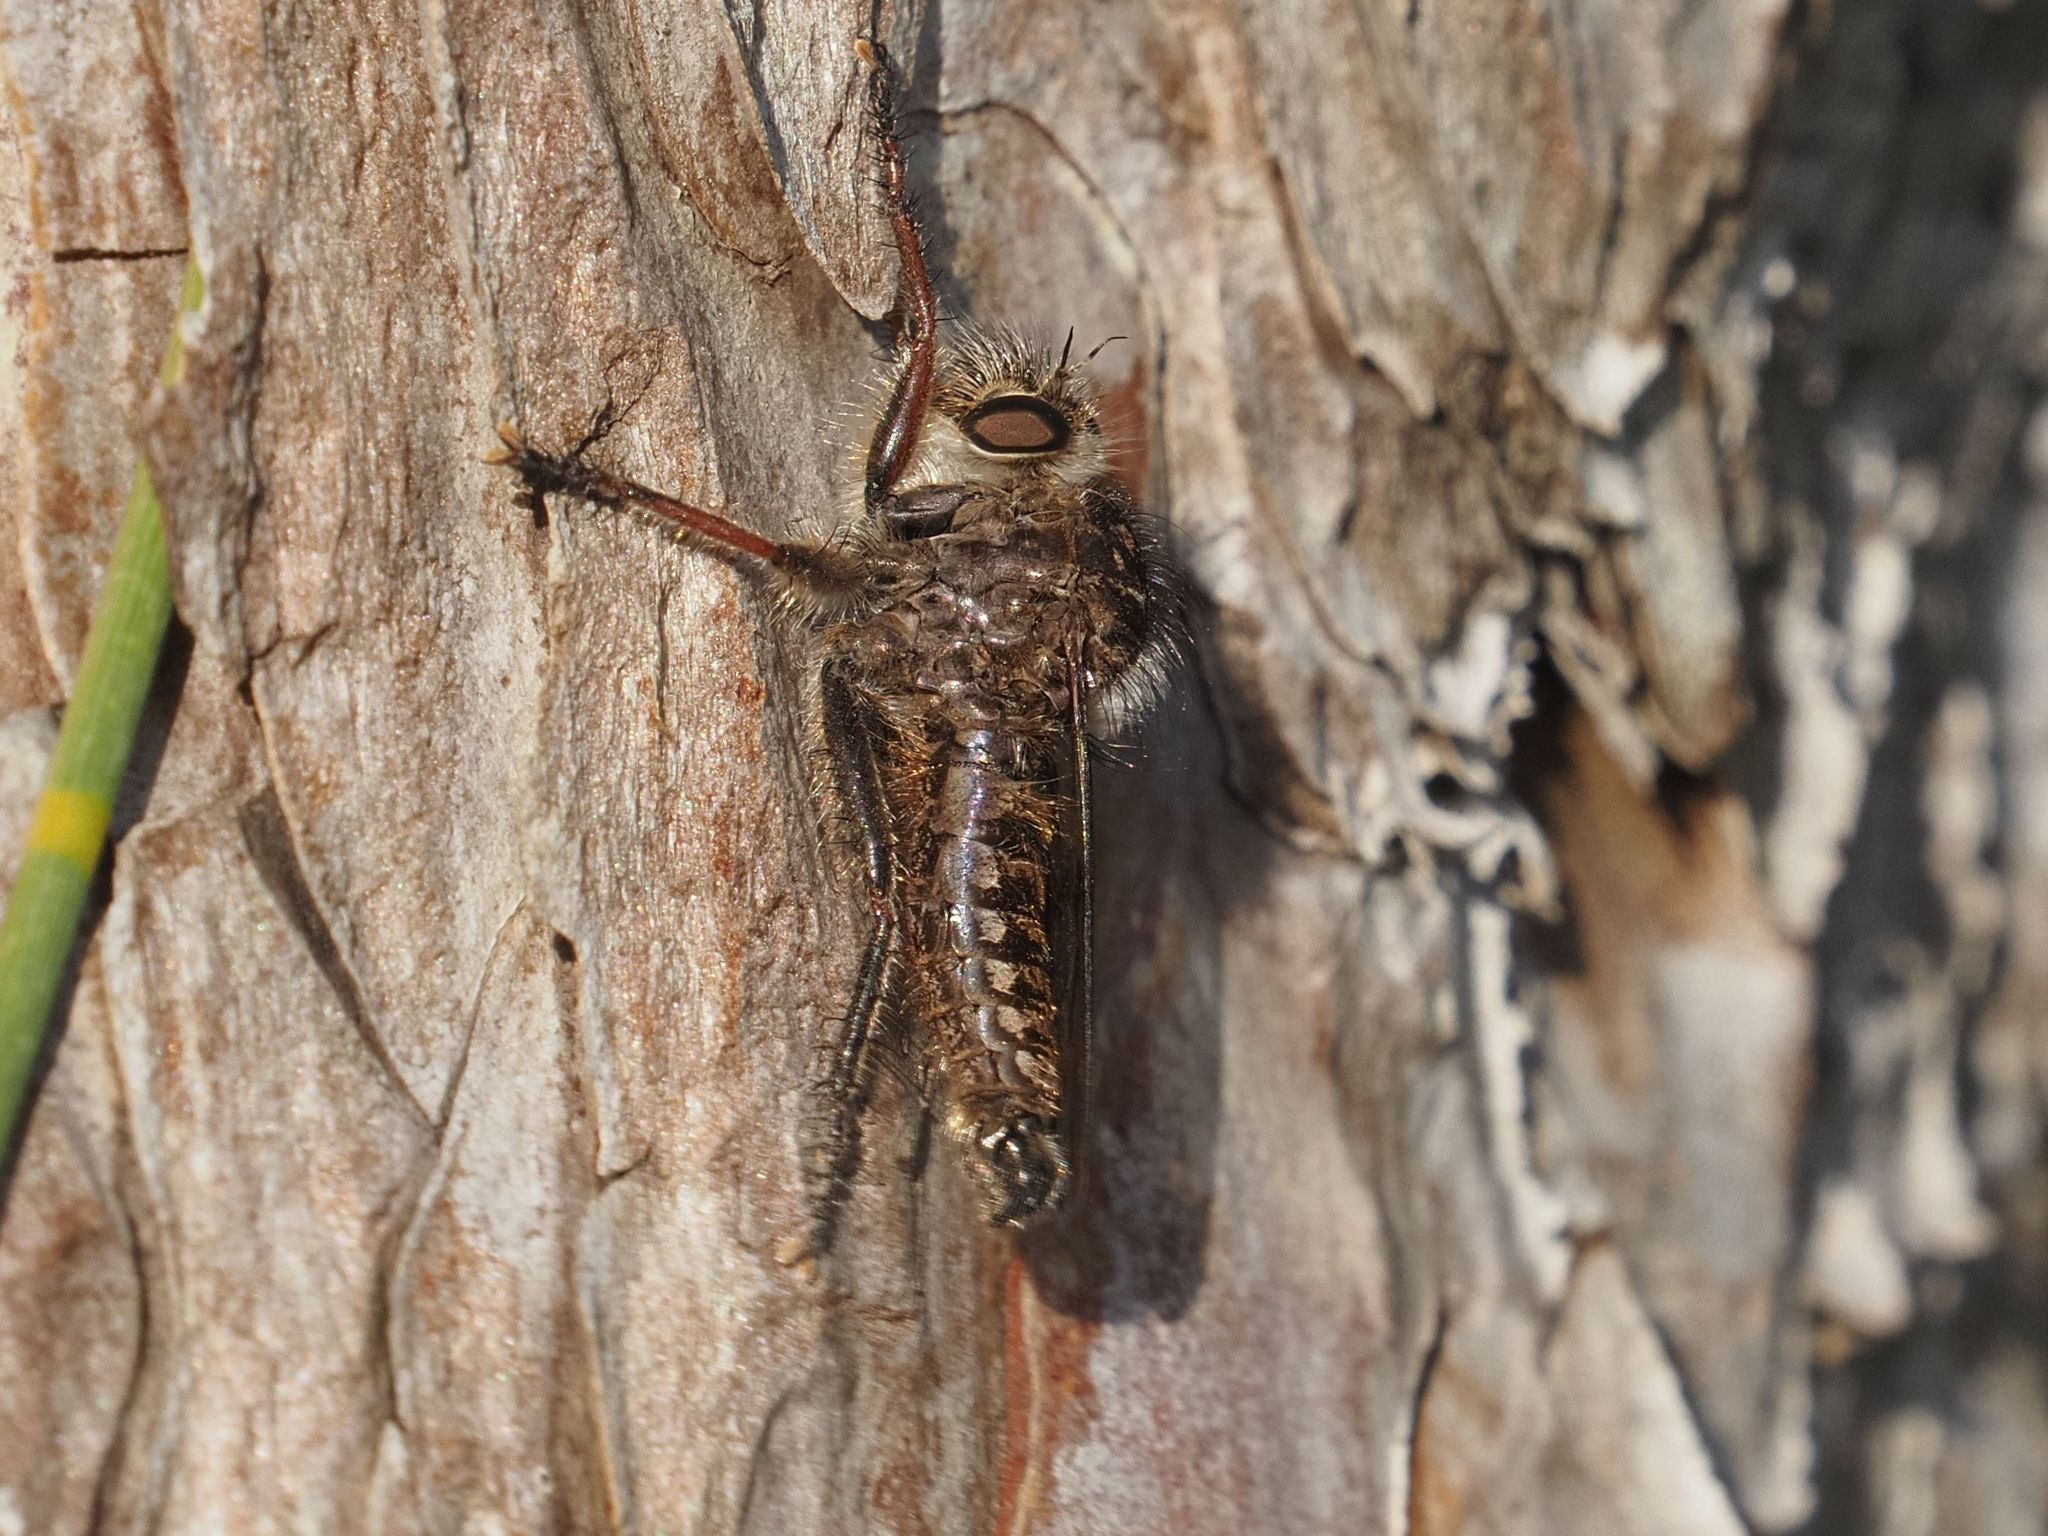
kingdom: Animalia
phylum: Arthropoda
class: Insecta
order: Diptera
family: Asilidae
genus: Erax
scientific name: Erax barbatus
